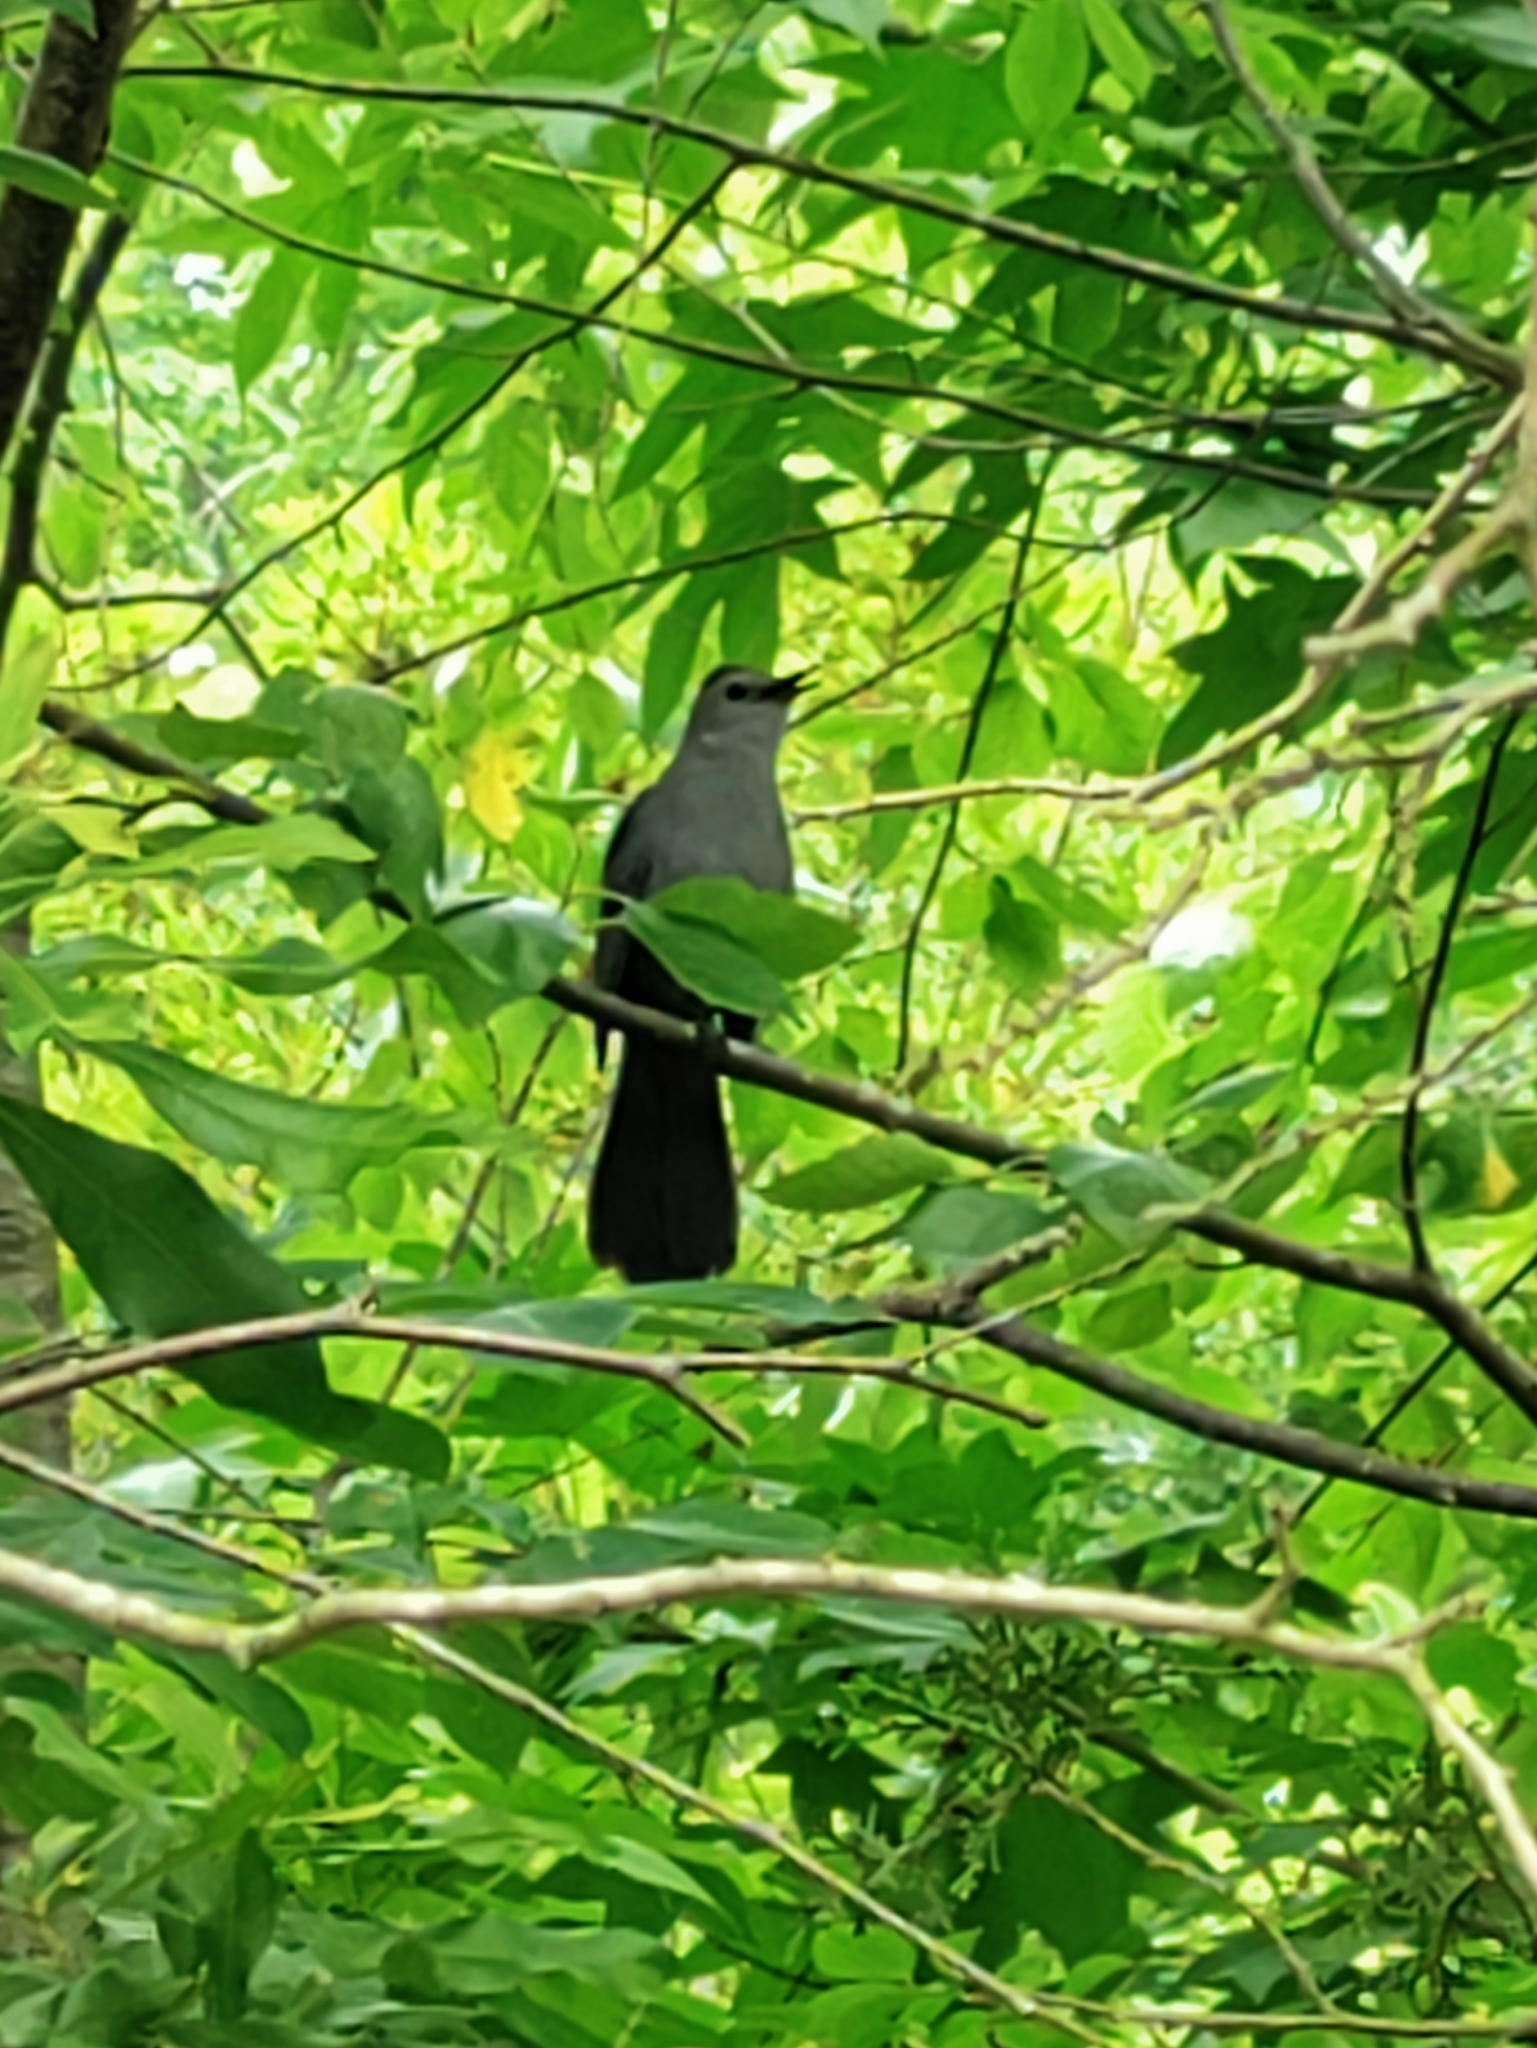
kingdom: Animalia
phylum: Chordata
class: Aves
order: Passeriformes
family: Mimidae
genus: Dumetella
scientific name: Dumetella carolinensis
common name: Gray catbird
